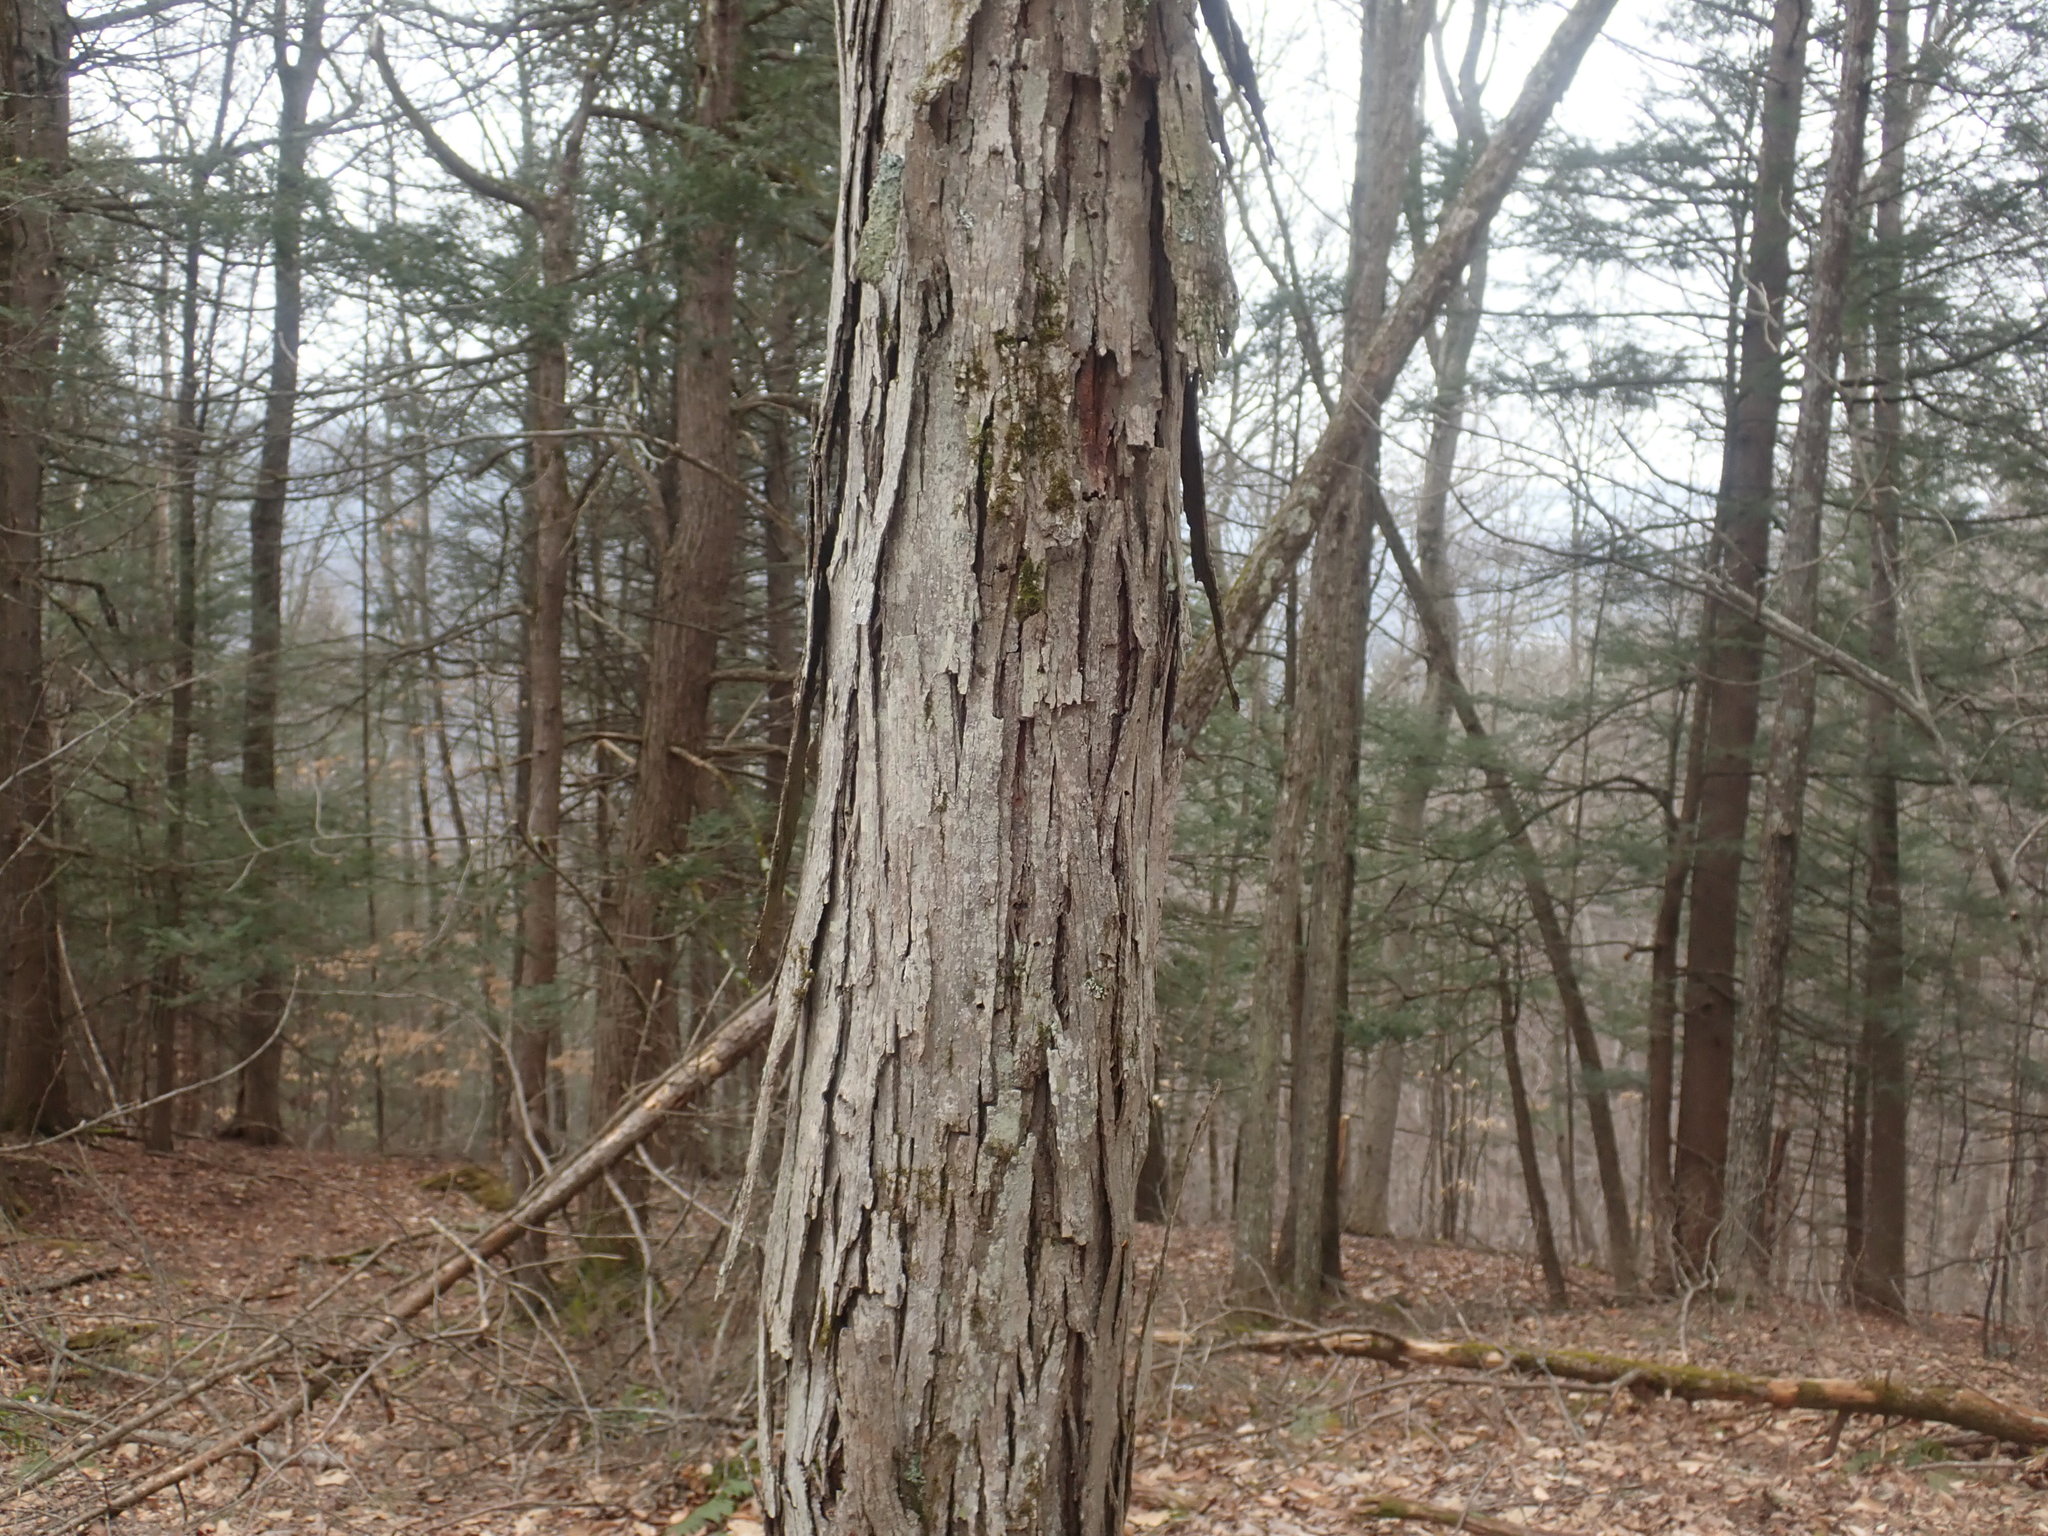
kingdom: Plantae
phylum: Tracheophyta
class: Magnoliopsida
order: Fagales
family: Juglandaceae
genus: Carya
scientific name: Carya ovata
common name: Shagbark hickory
